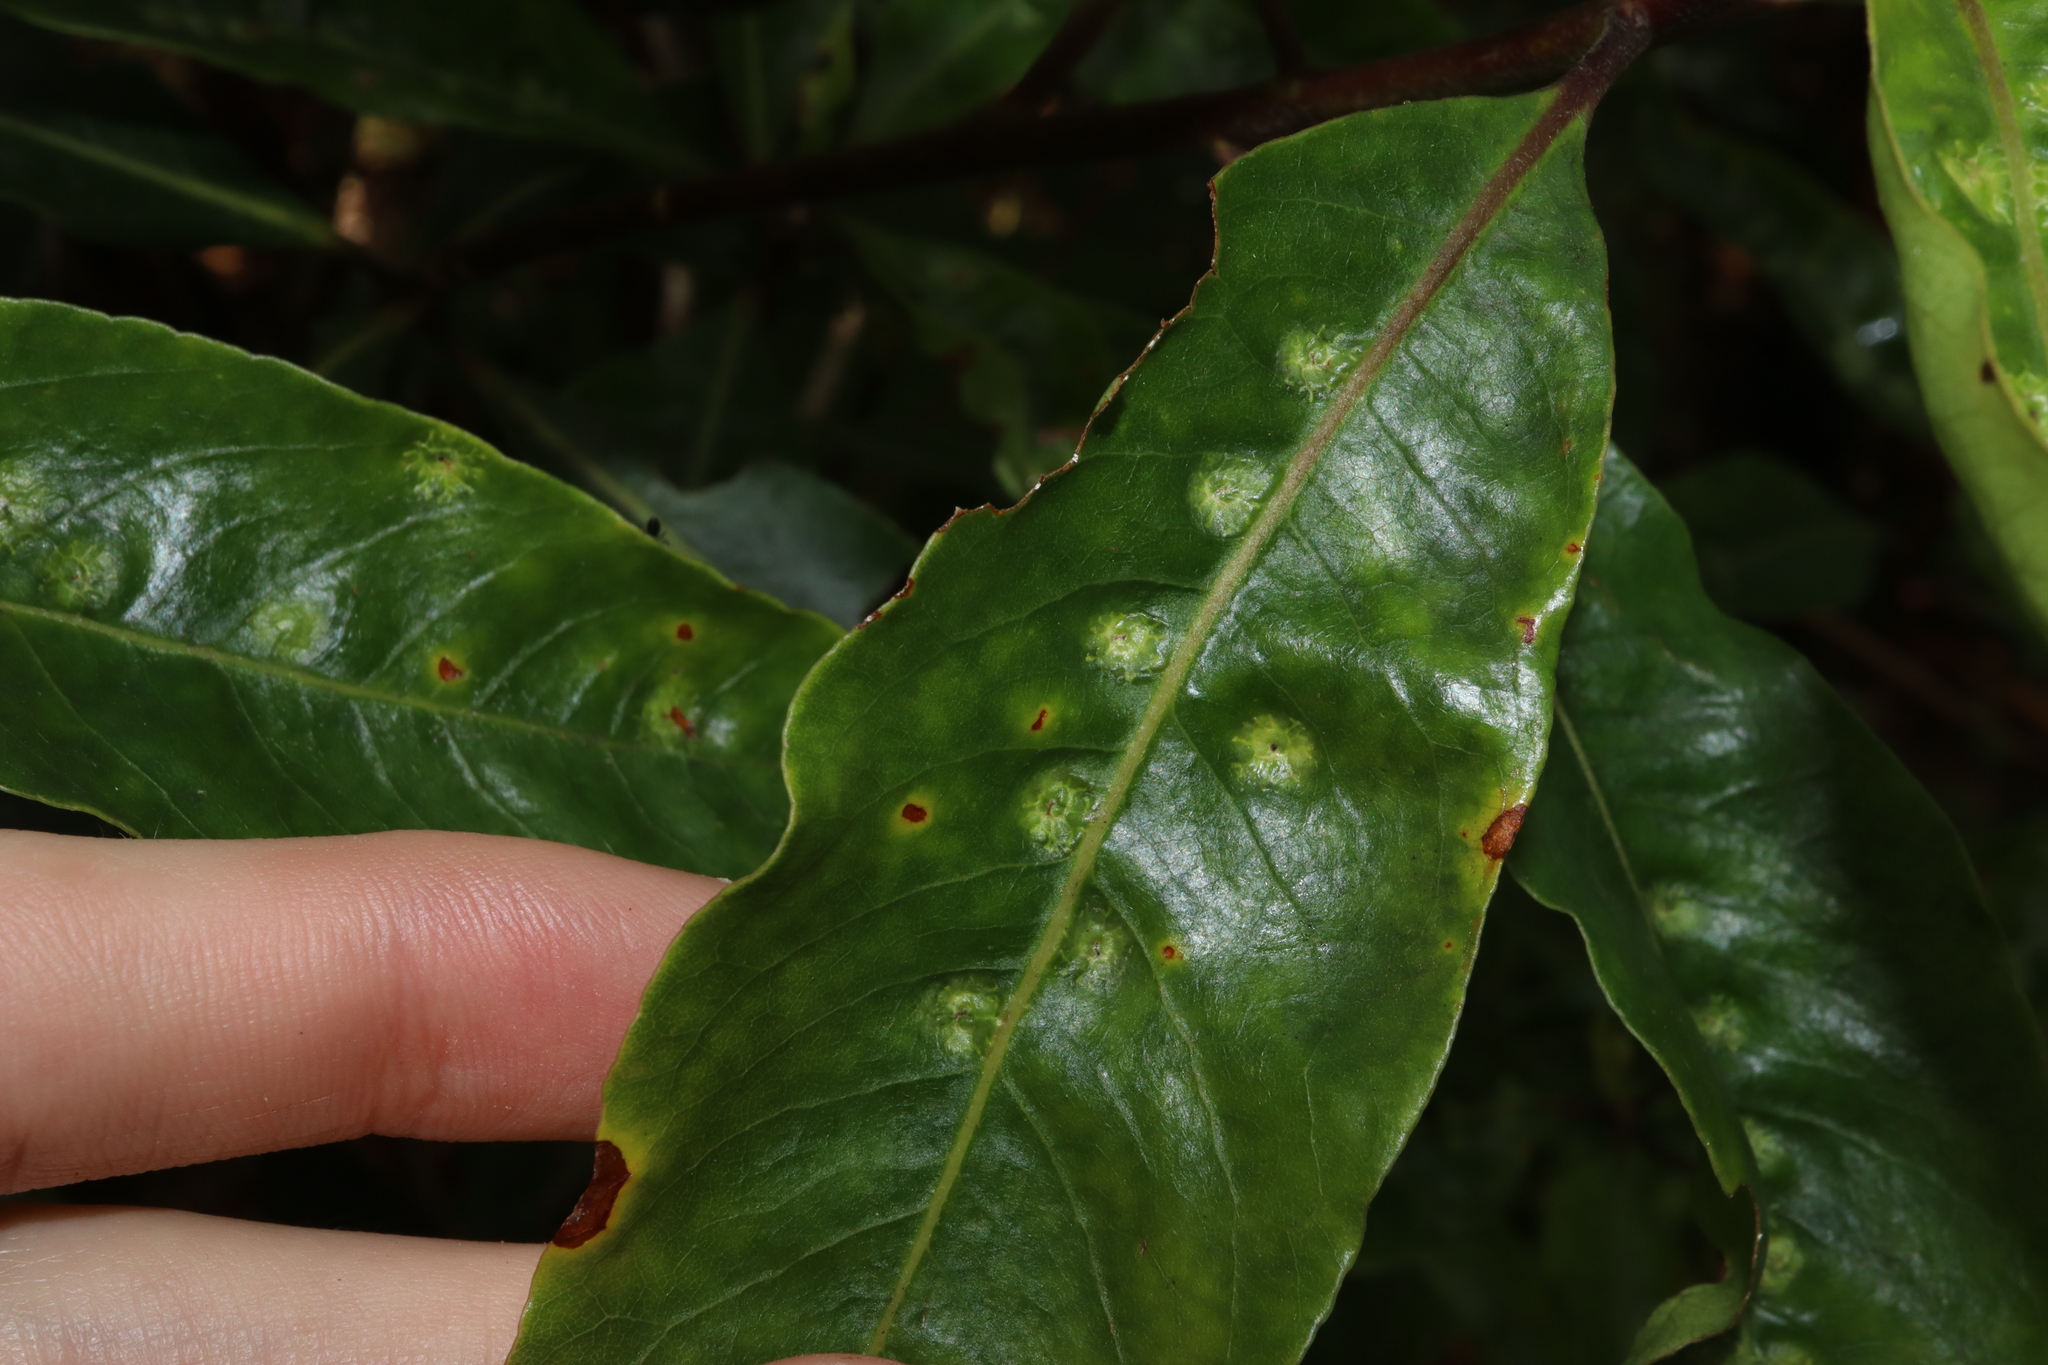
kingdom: Animalia
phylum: Arthropoda
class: Insecta
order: Diptera
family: Agromyzidae
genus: Phytoliriomyza
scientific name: Phytoliriomyza pittosporophylli
